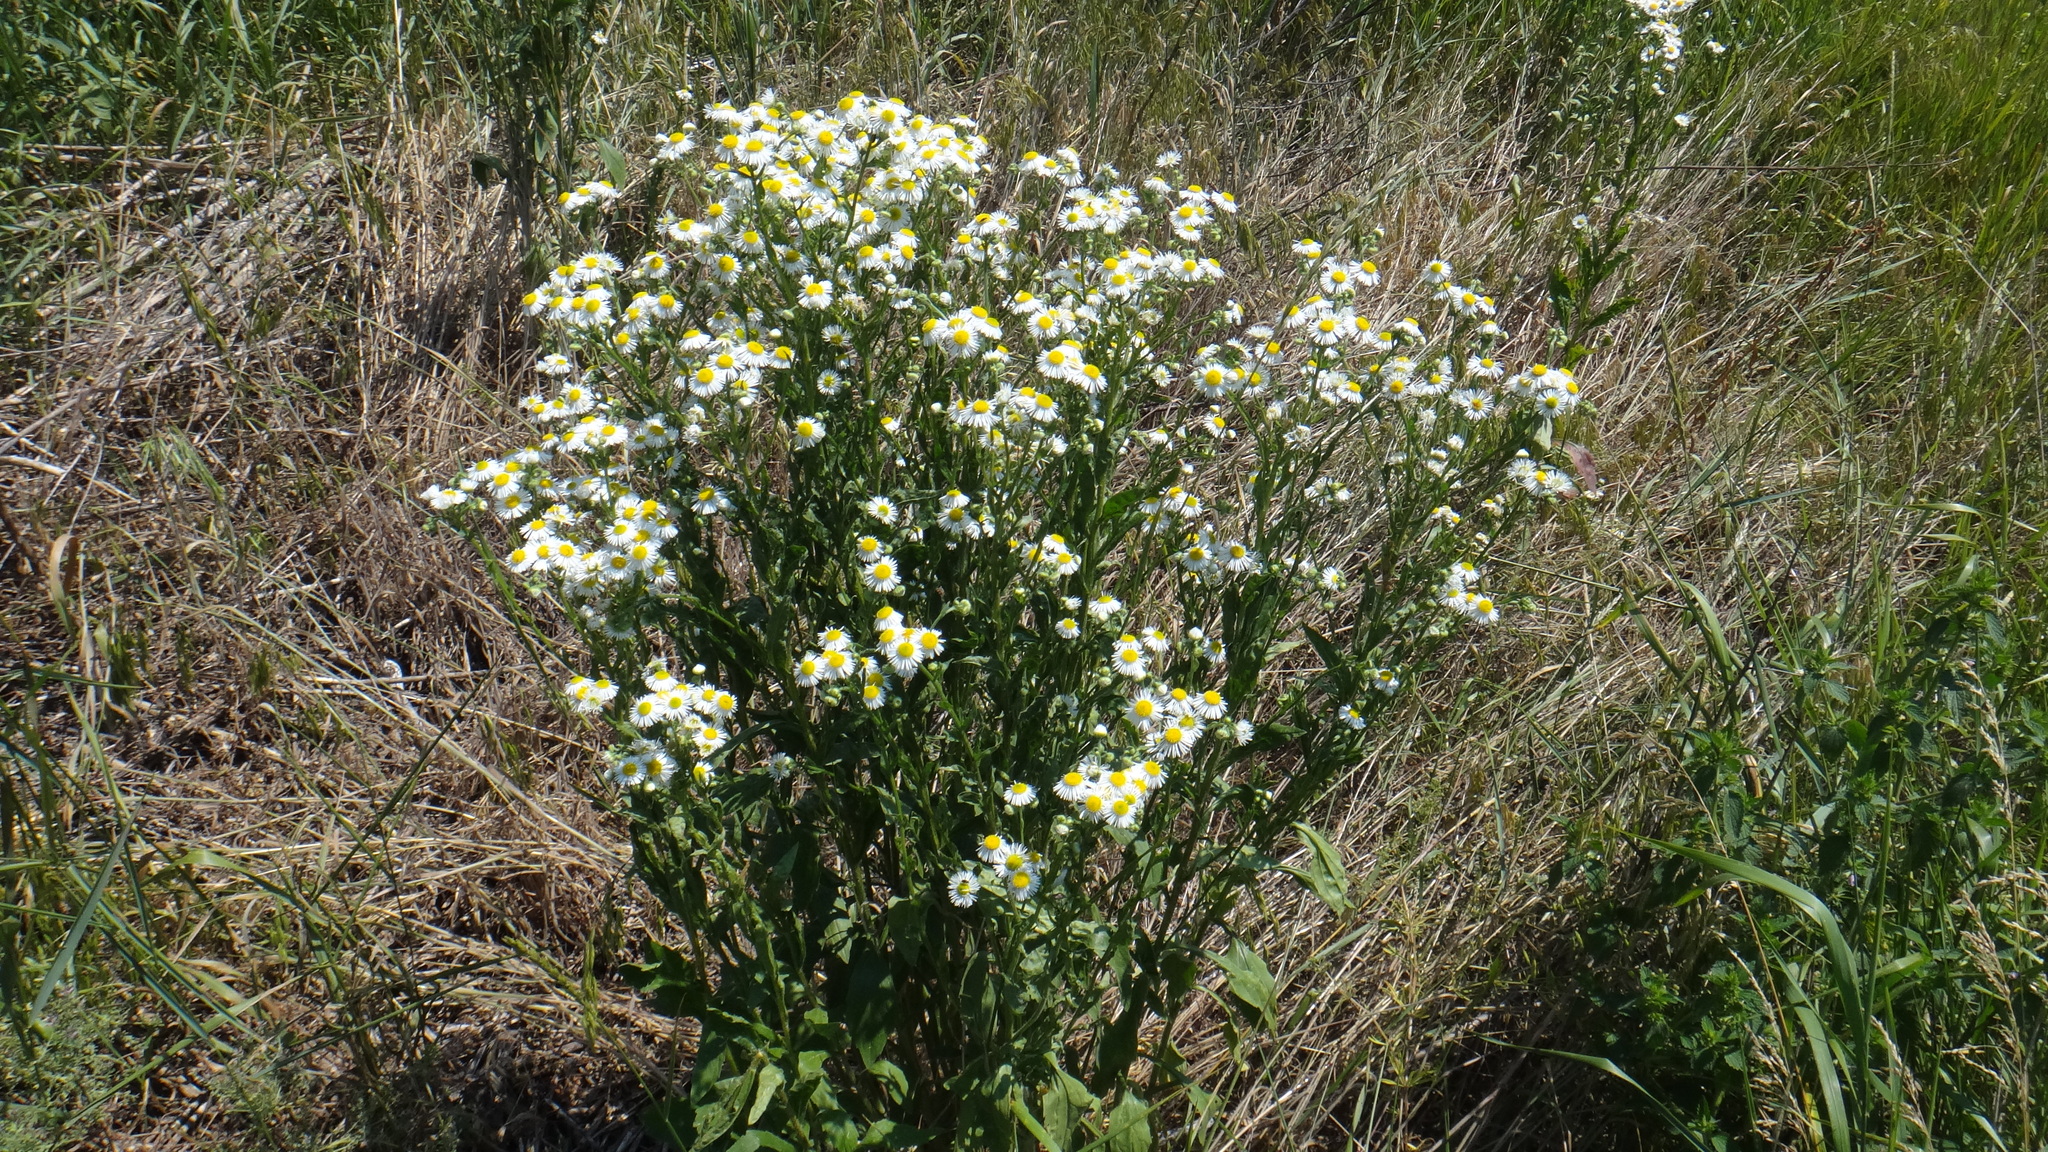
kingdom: Plantae
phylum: Tracheophyta
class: Magnoliopsida
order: Asterales
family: Asteraceae
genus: Erigeron
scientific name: Erigeron annuus
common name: Tall fleabane
